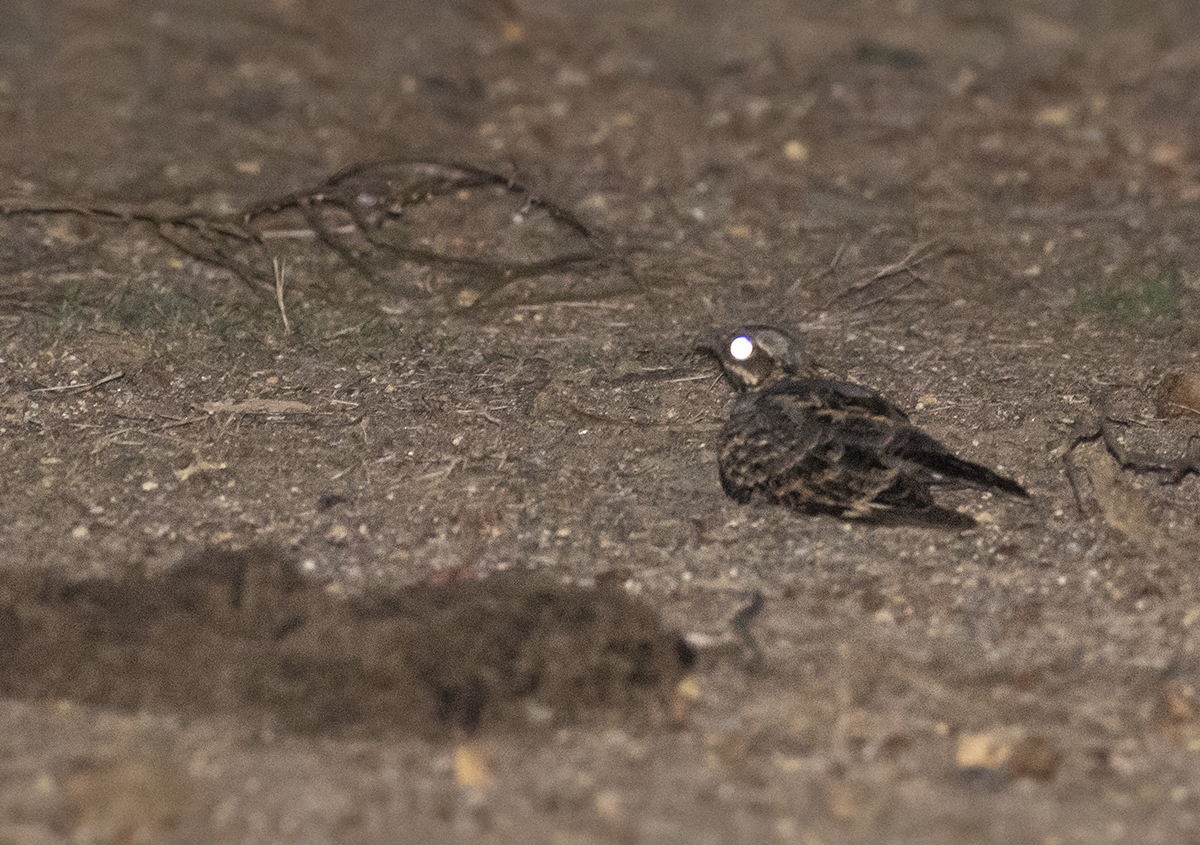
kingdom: Animalia
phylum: Chordata
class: Aves
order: Caprimulgiformes
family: Caprimulgidae
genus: Caprimulgus
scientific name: Caprimulgus asiaticus
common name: Indian nightjar
